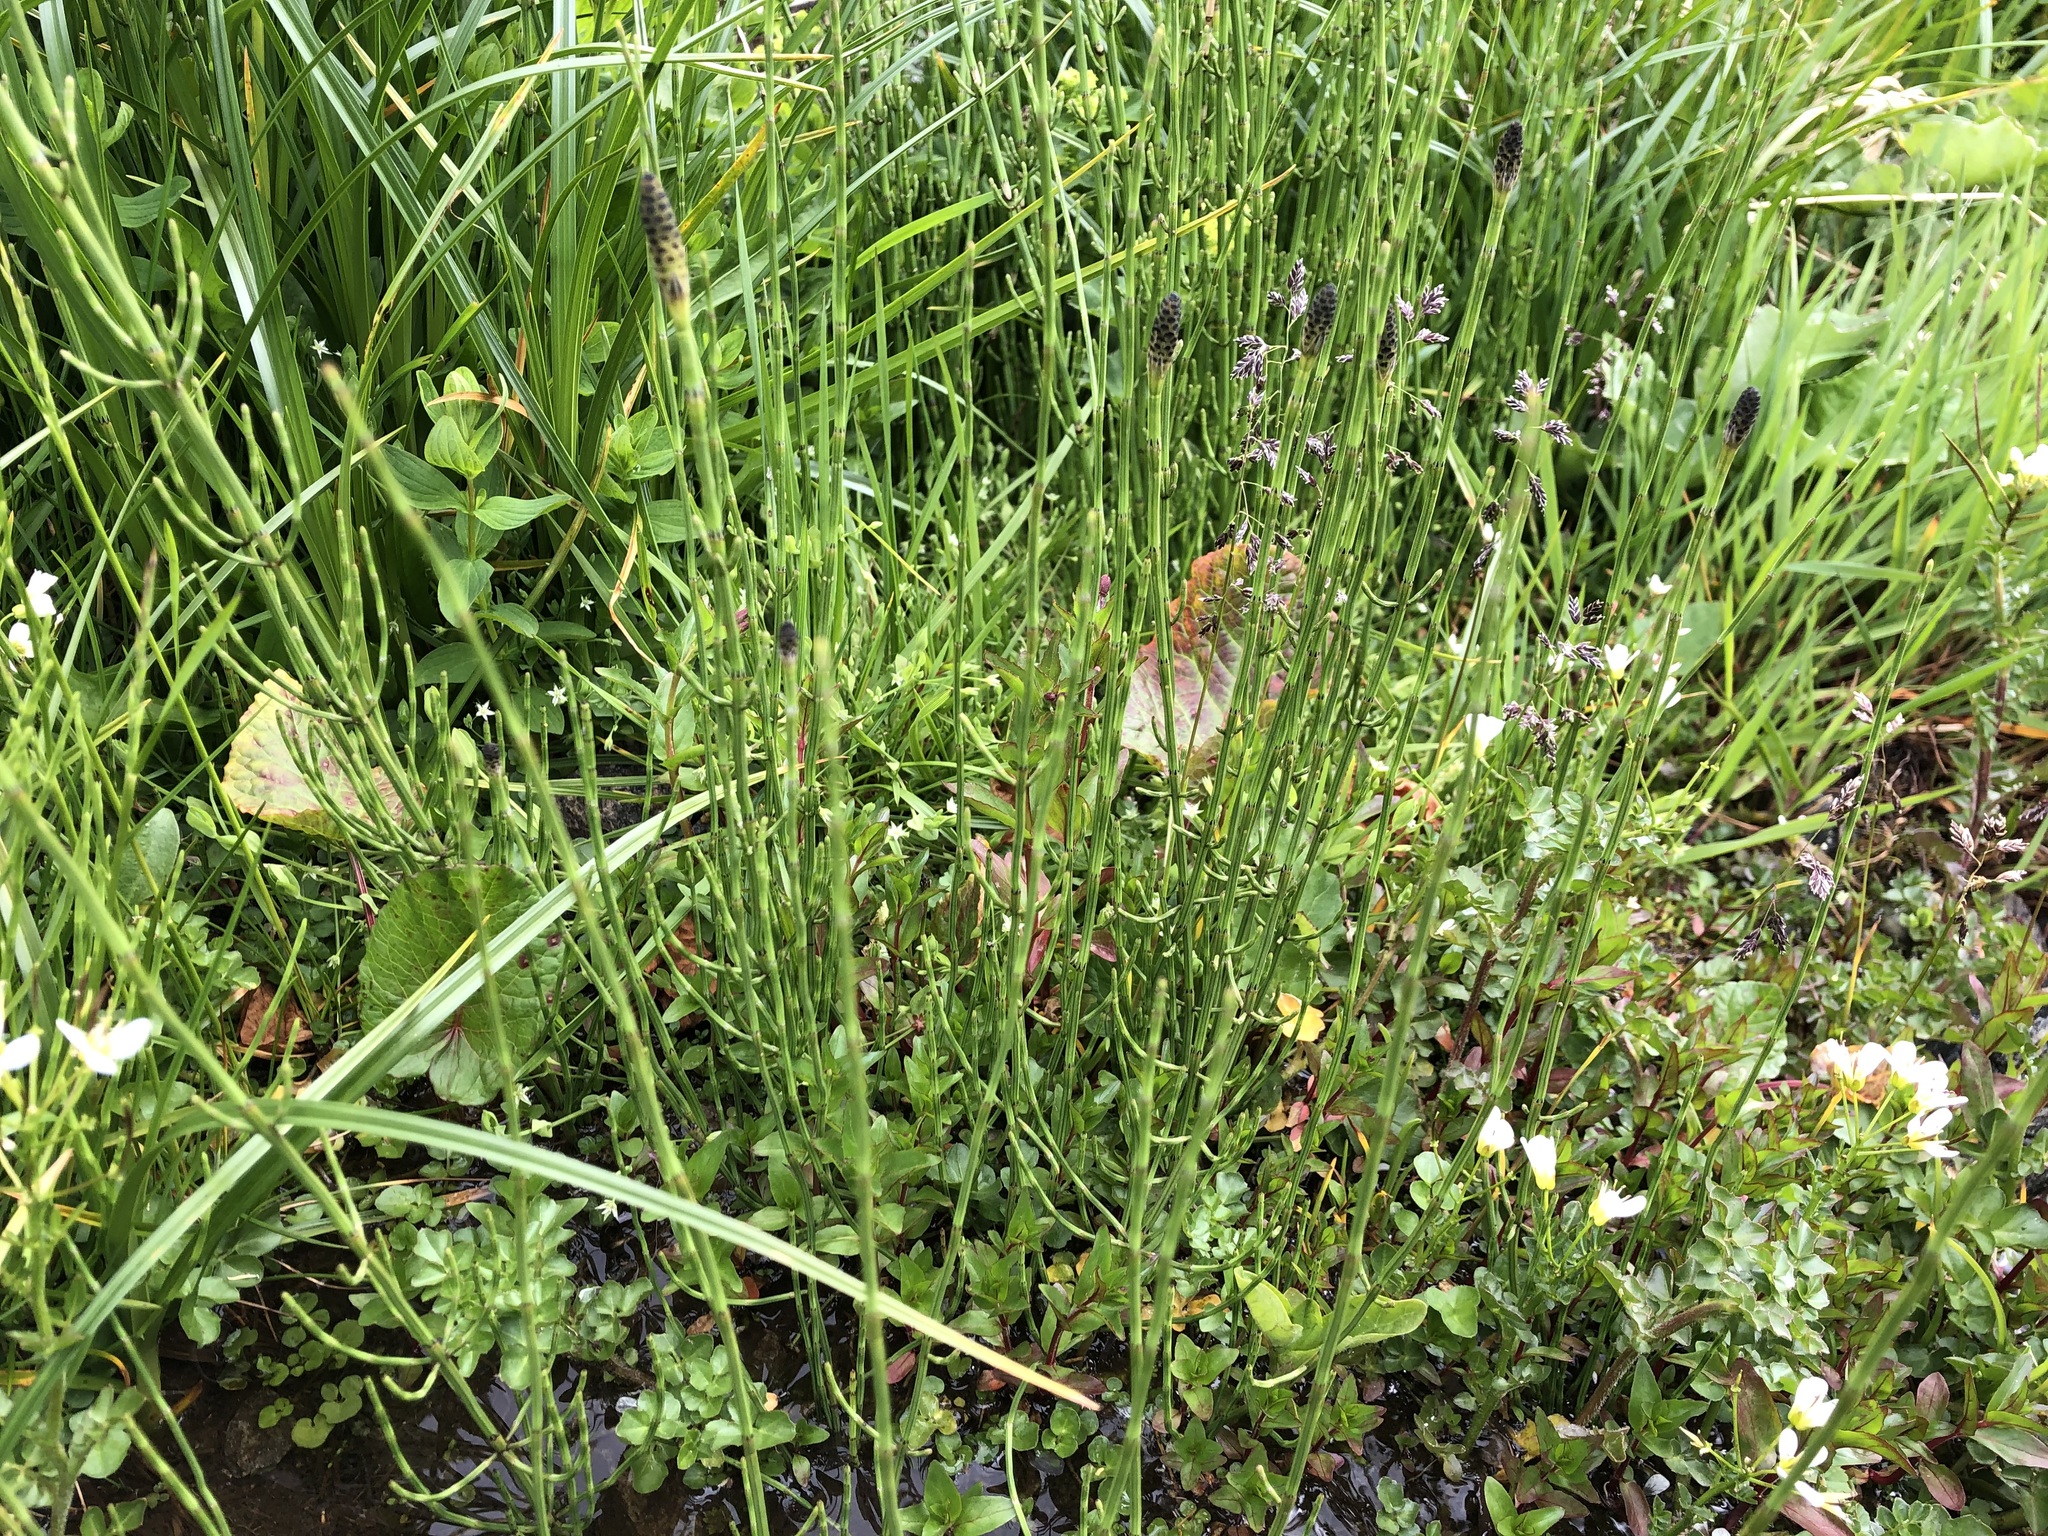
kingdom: Plantae
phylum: Tracheophyta
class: Polypodiopsida
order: Equisetales
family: Equisetaceae
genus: Equisetum
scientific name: Equisetum palustre
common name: Marsh horsetail
